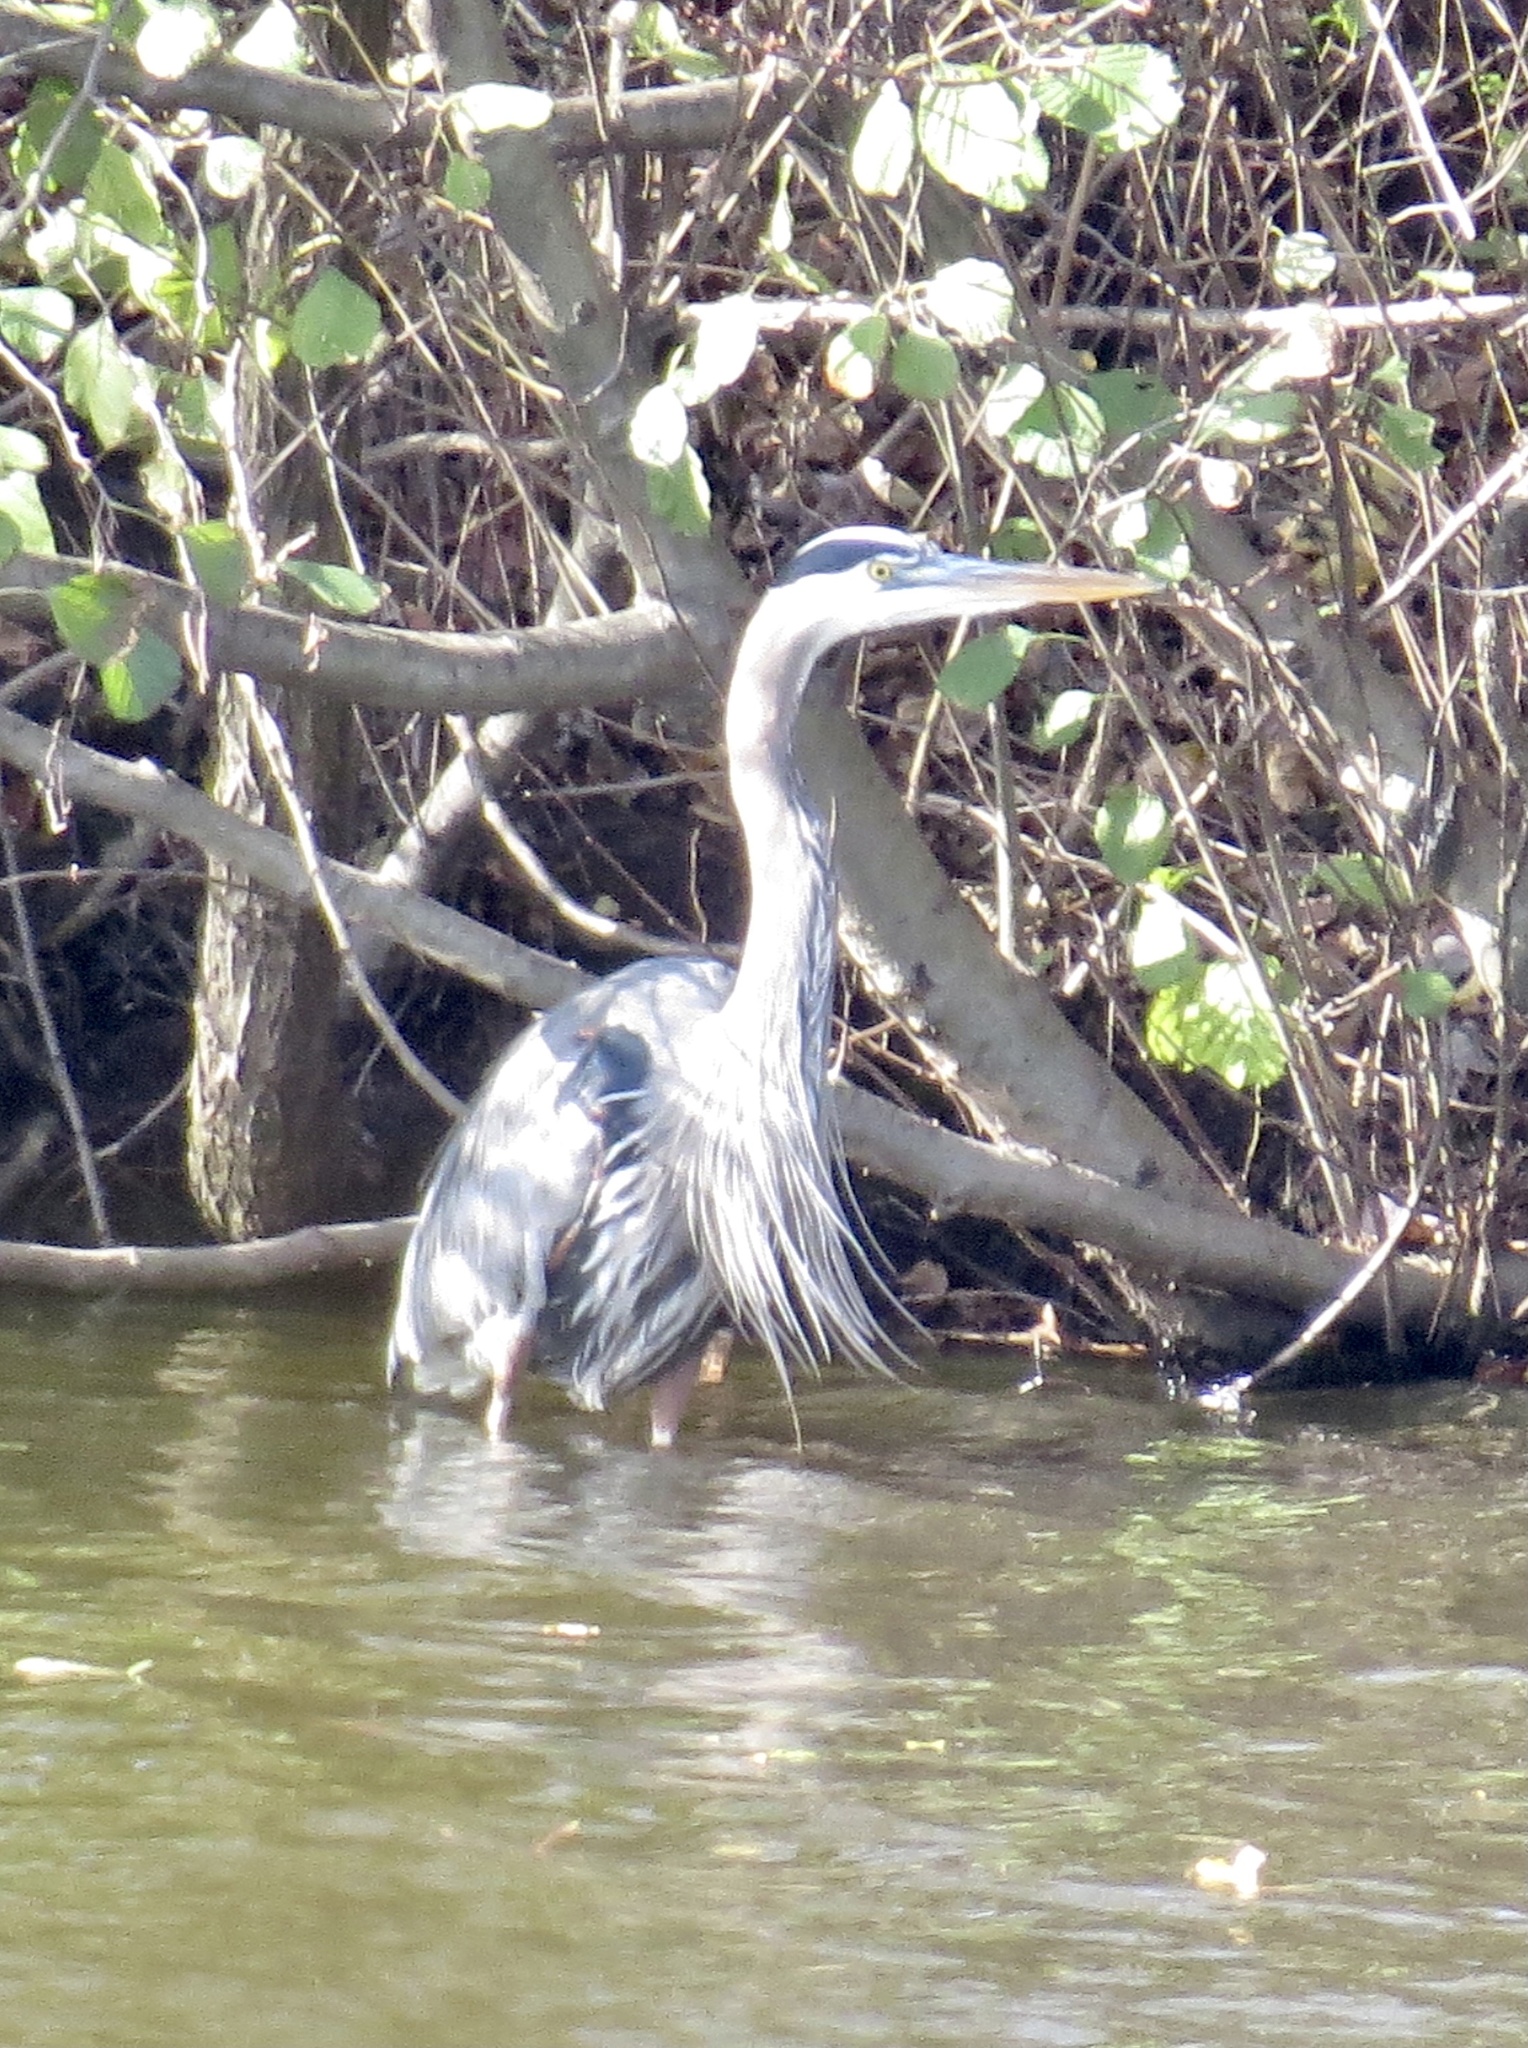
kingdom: Animalia
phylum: Chordata
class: Aves
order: Pelecaniformes
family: Ardeidae
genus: Ardea
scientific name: Ardea herodias
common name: Great blue heron
